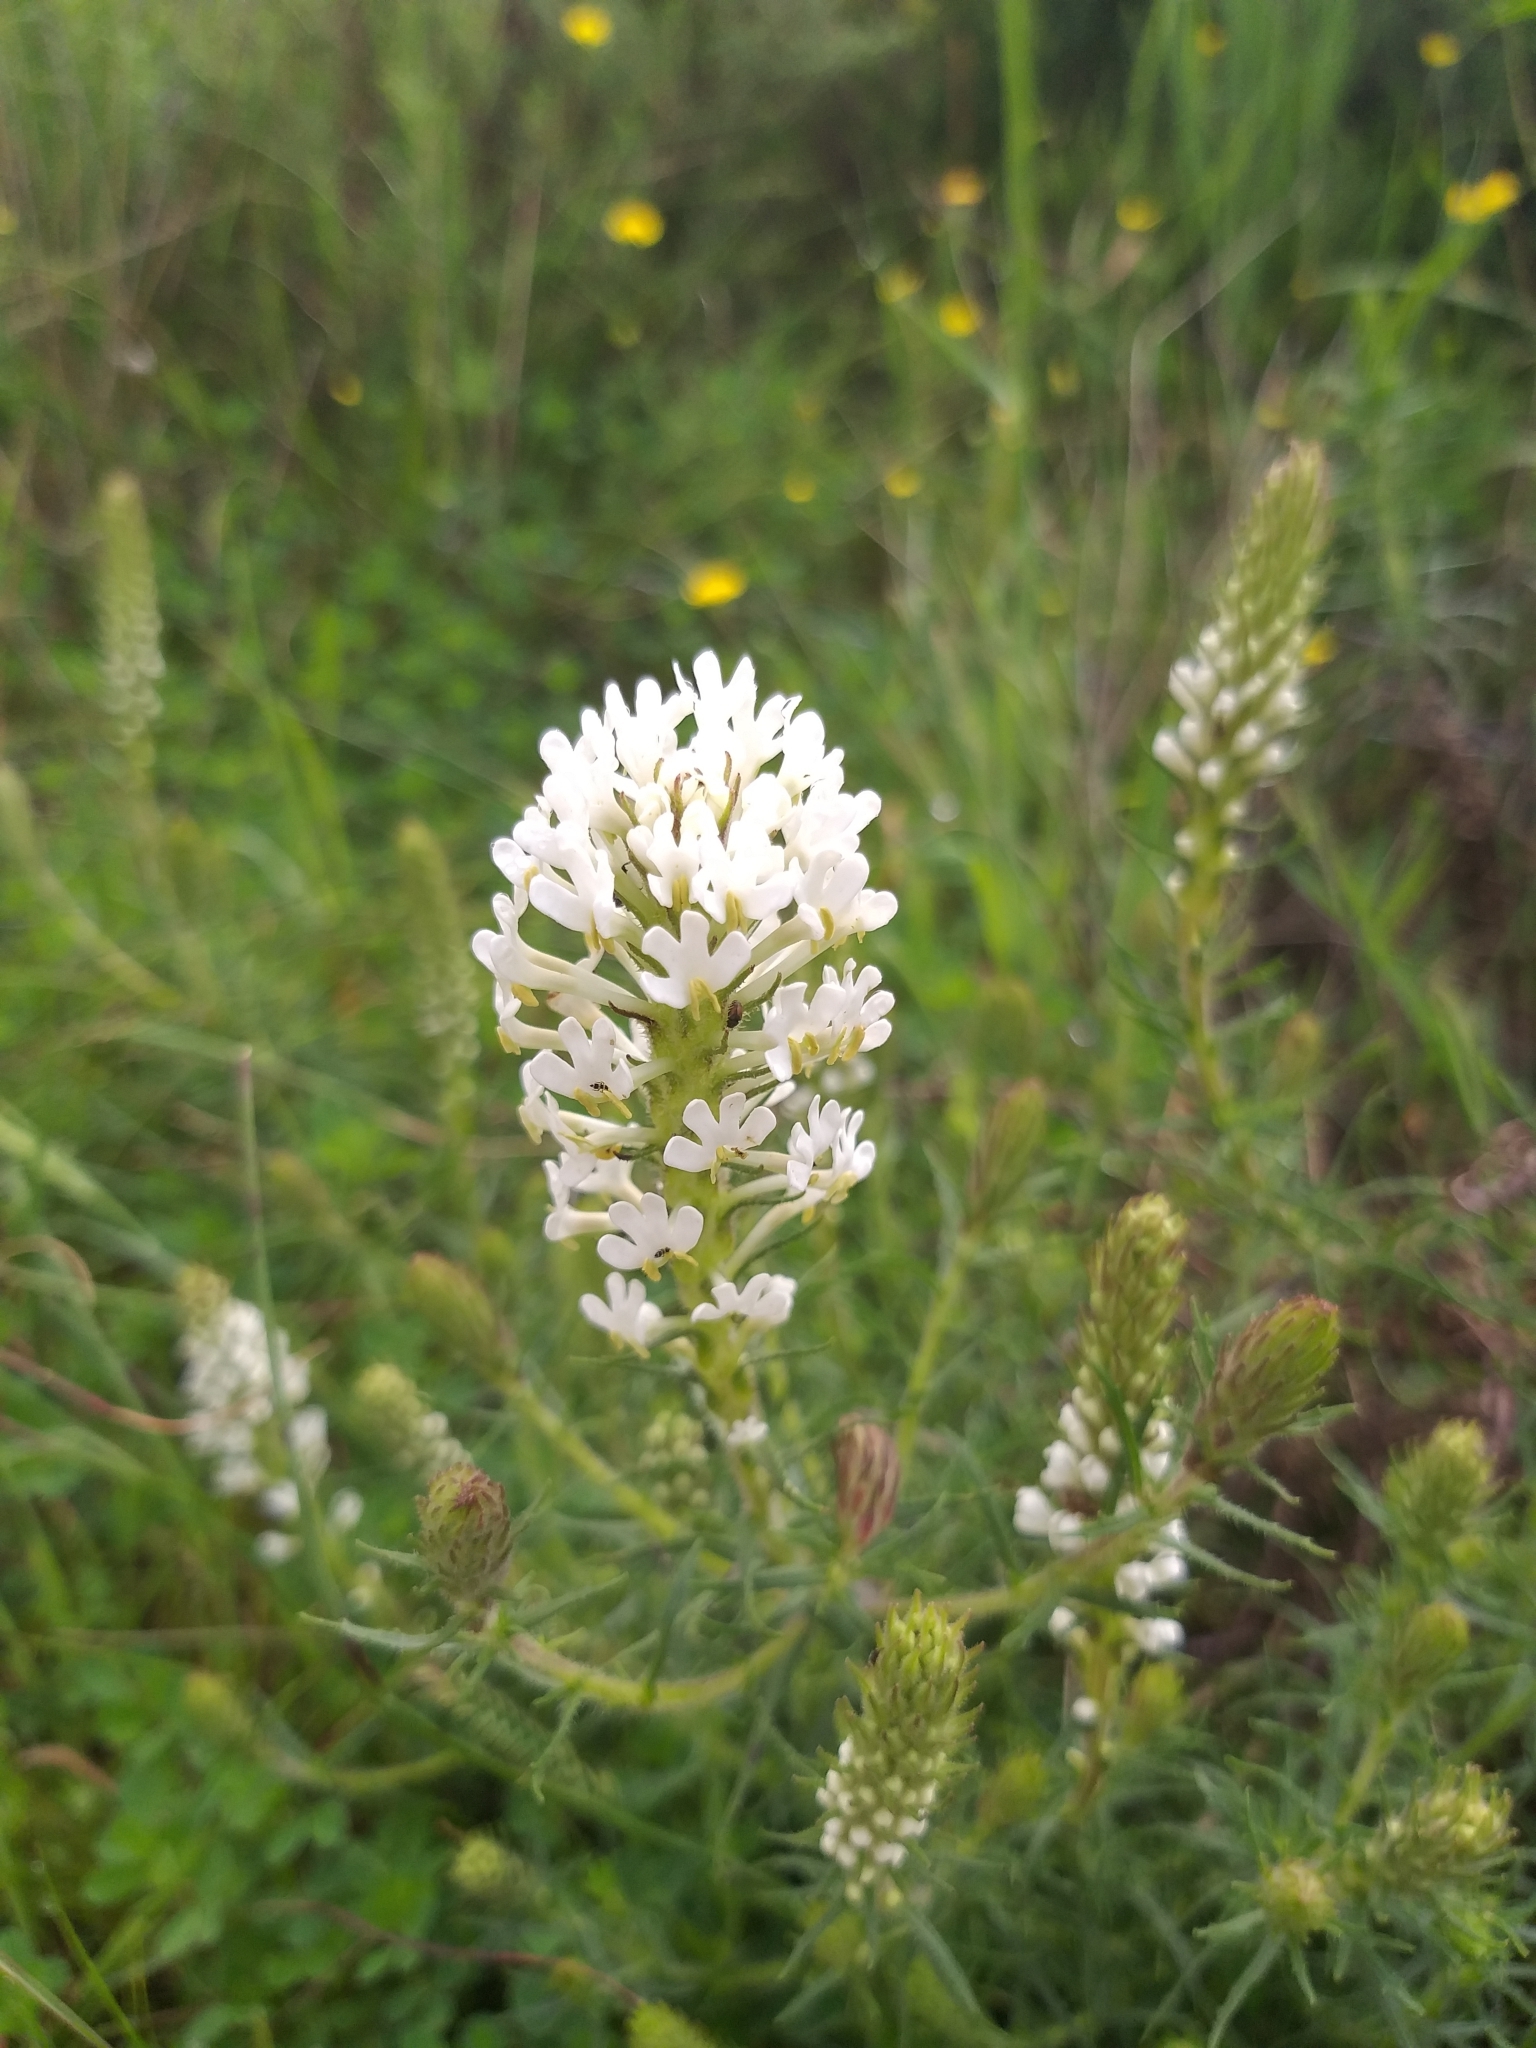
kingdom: Plantae
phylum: Tracheophyta
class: Magnoliopsida
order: Lamiales
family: Scrophulariaceae
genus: Dischisma
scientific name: Dischisma ciliatum
